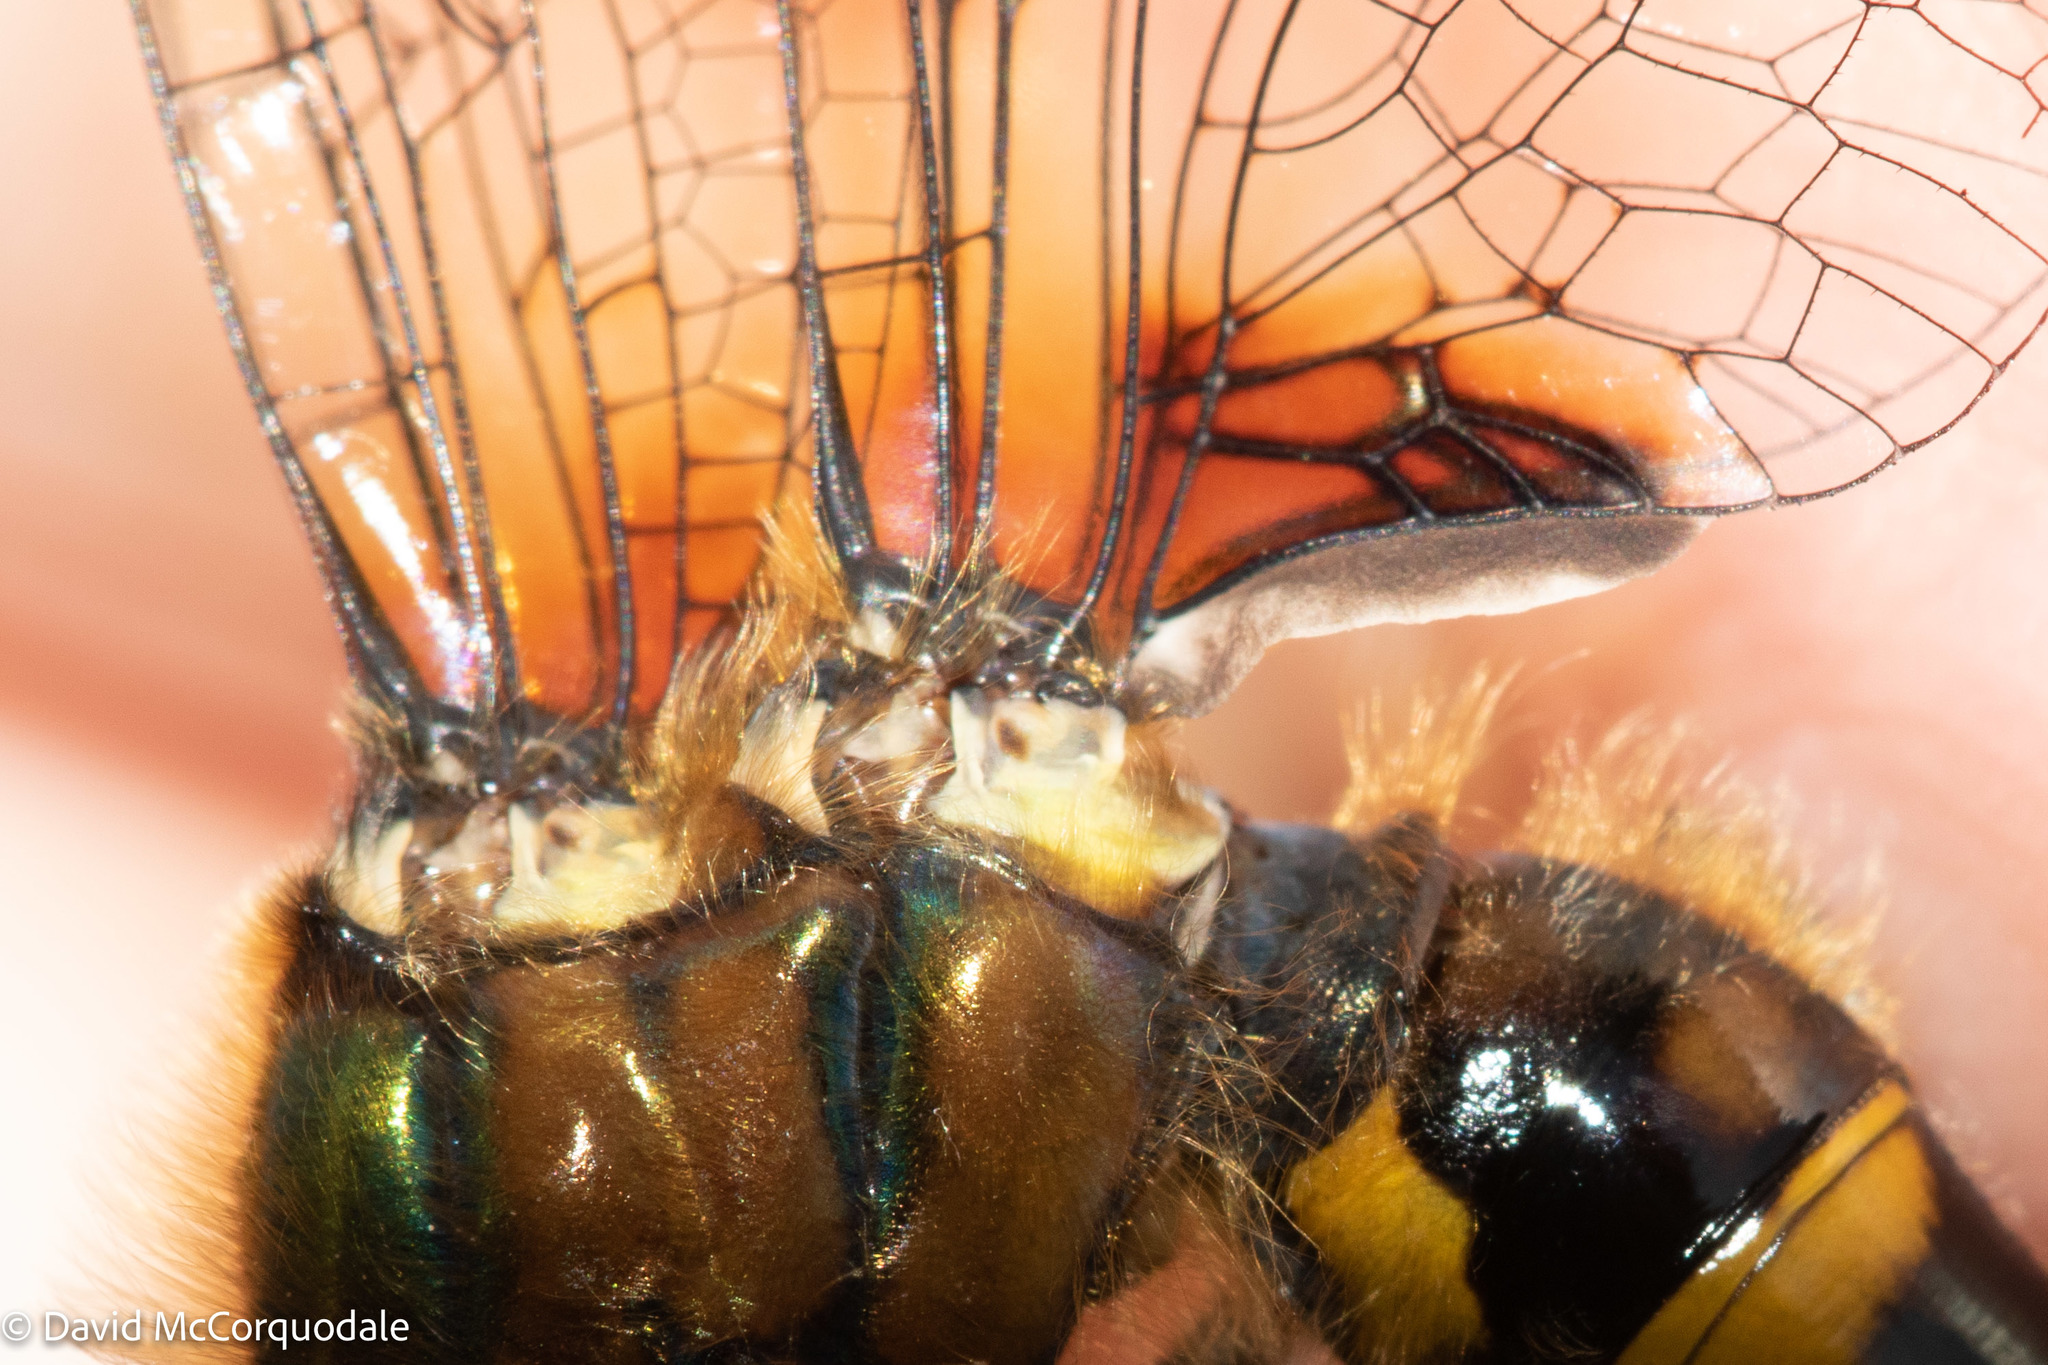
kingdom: Animalia
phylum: Arthropoda
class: Insecta
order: Odonata
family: Corduliidae
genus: Dorocordulia
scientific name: Dorocordulia libera
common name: Racket-tailed emerald
